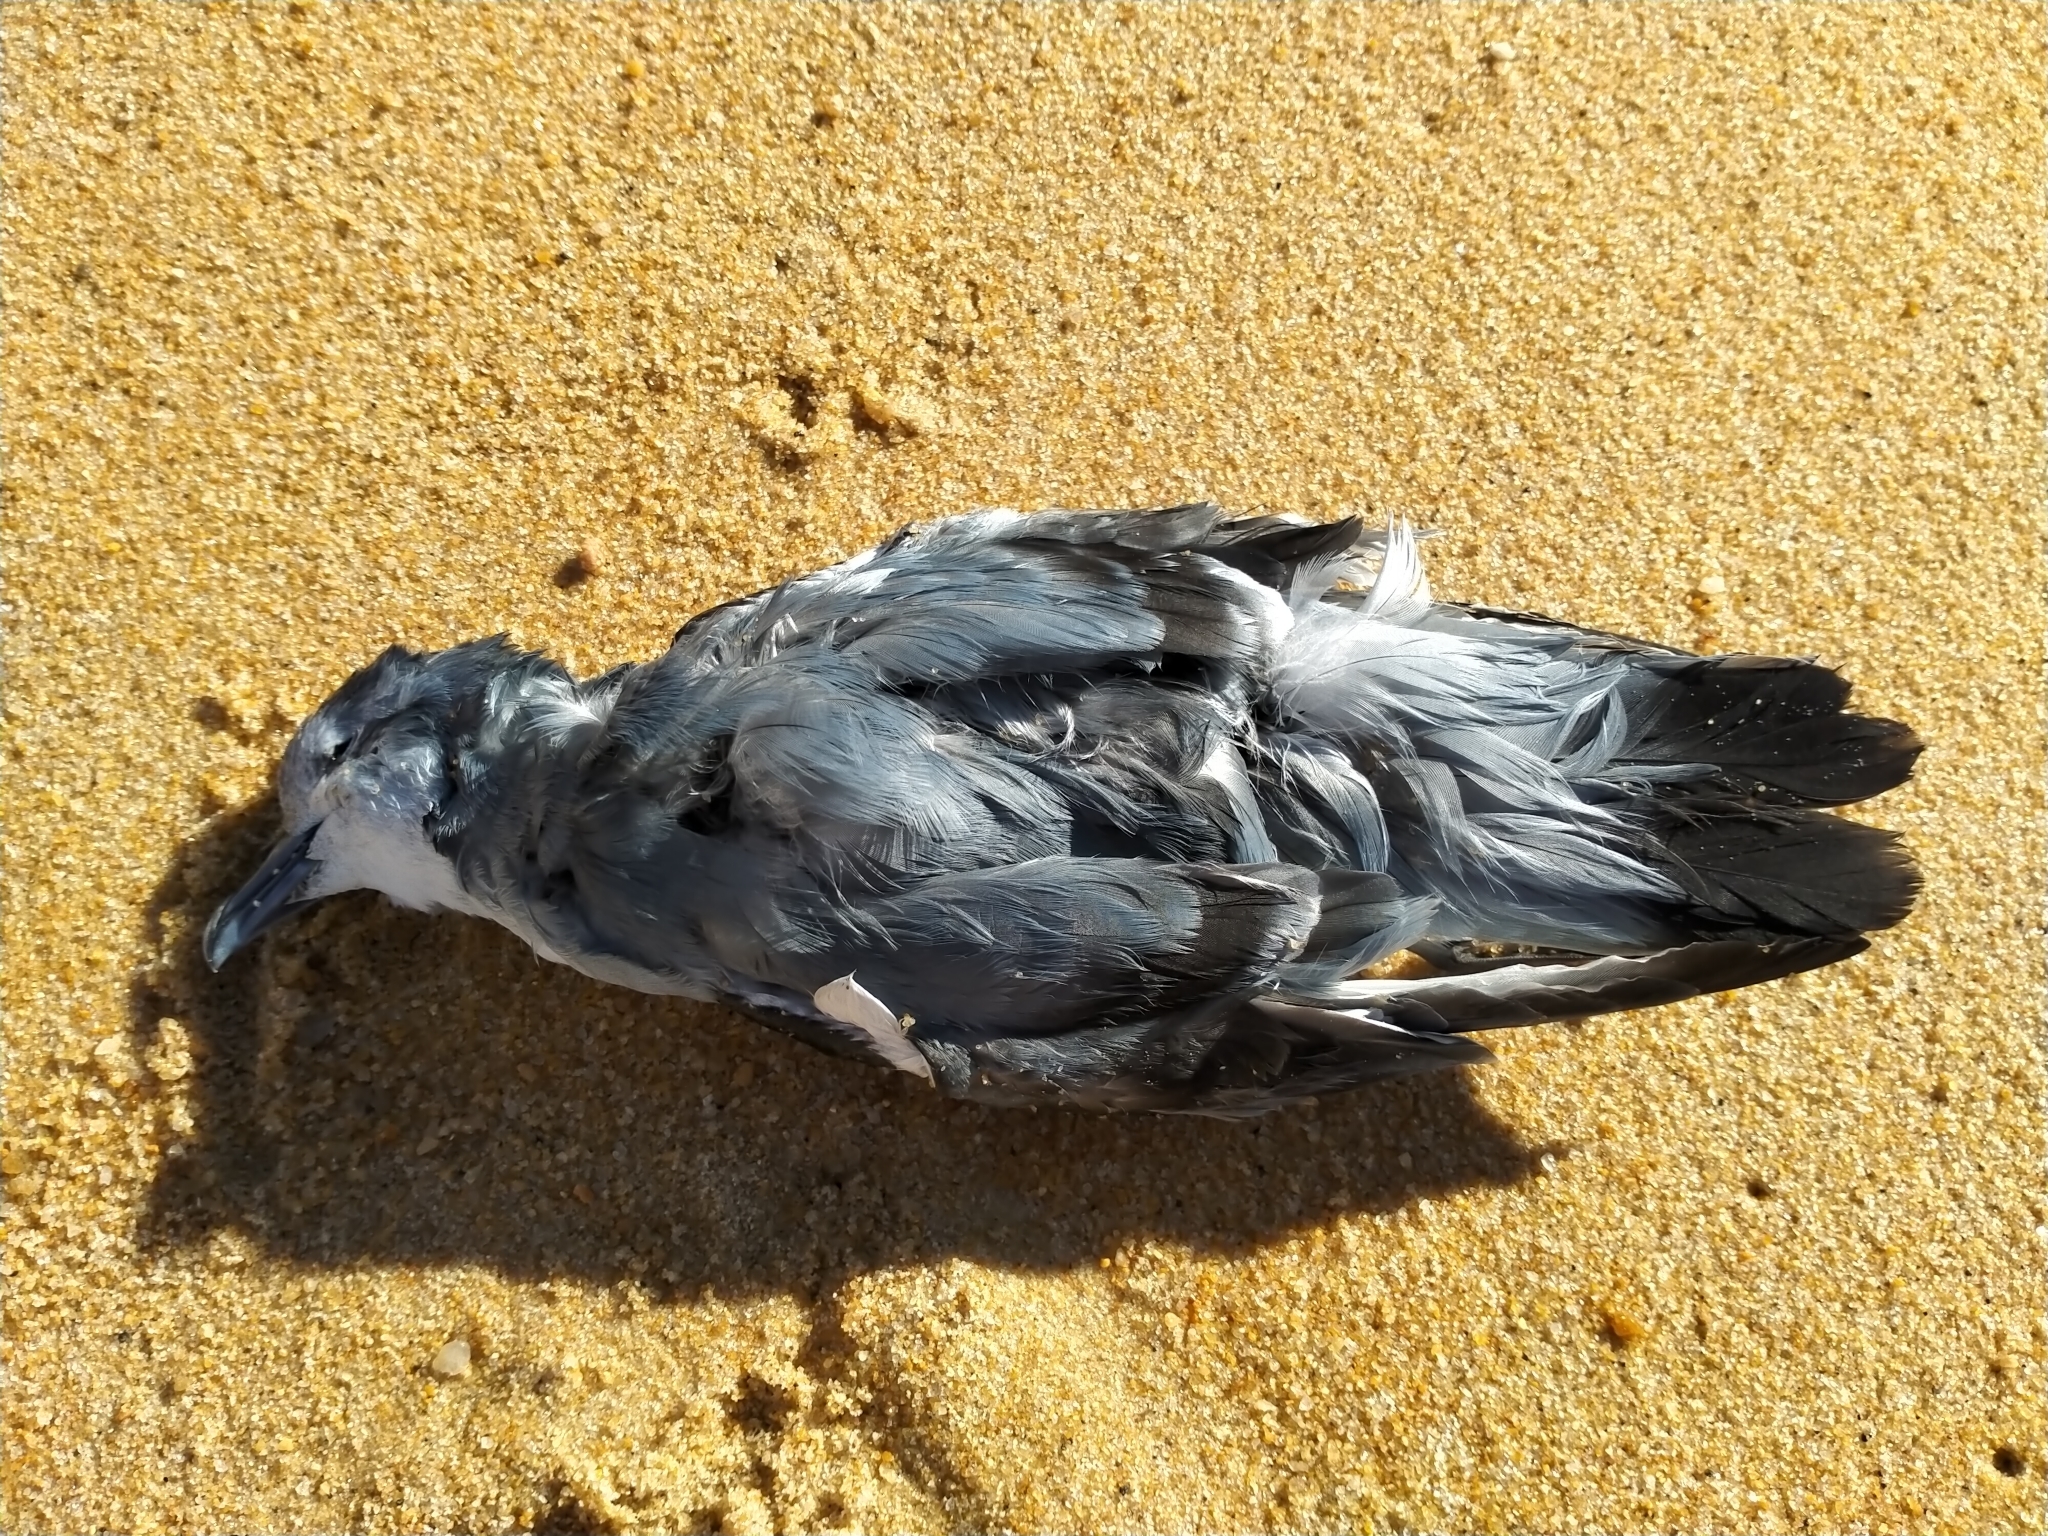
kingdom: Animalia
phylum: Chordata
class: Aves
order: Procellariiformes
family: Procellariidae
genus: Pachyptila
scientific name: Pachyptila turtur
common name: Fairy prion
